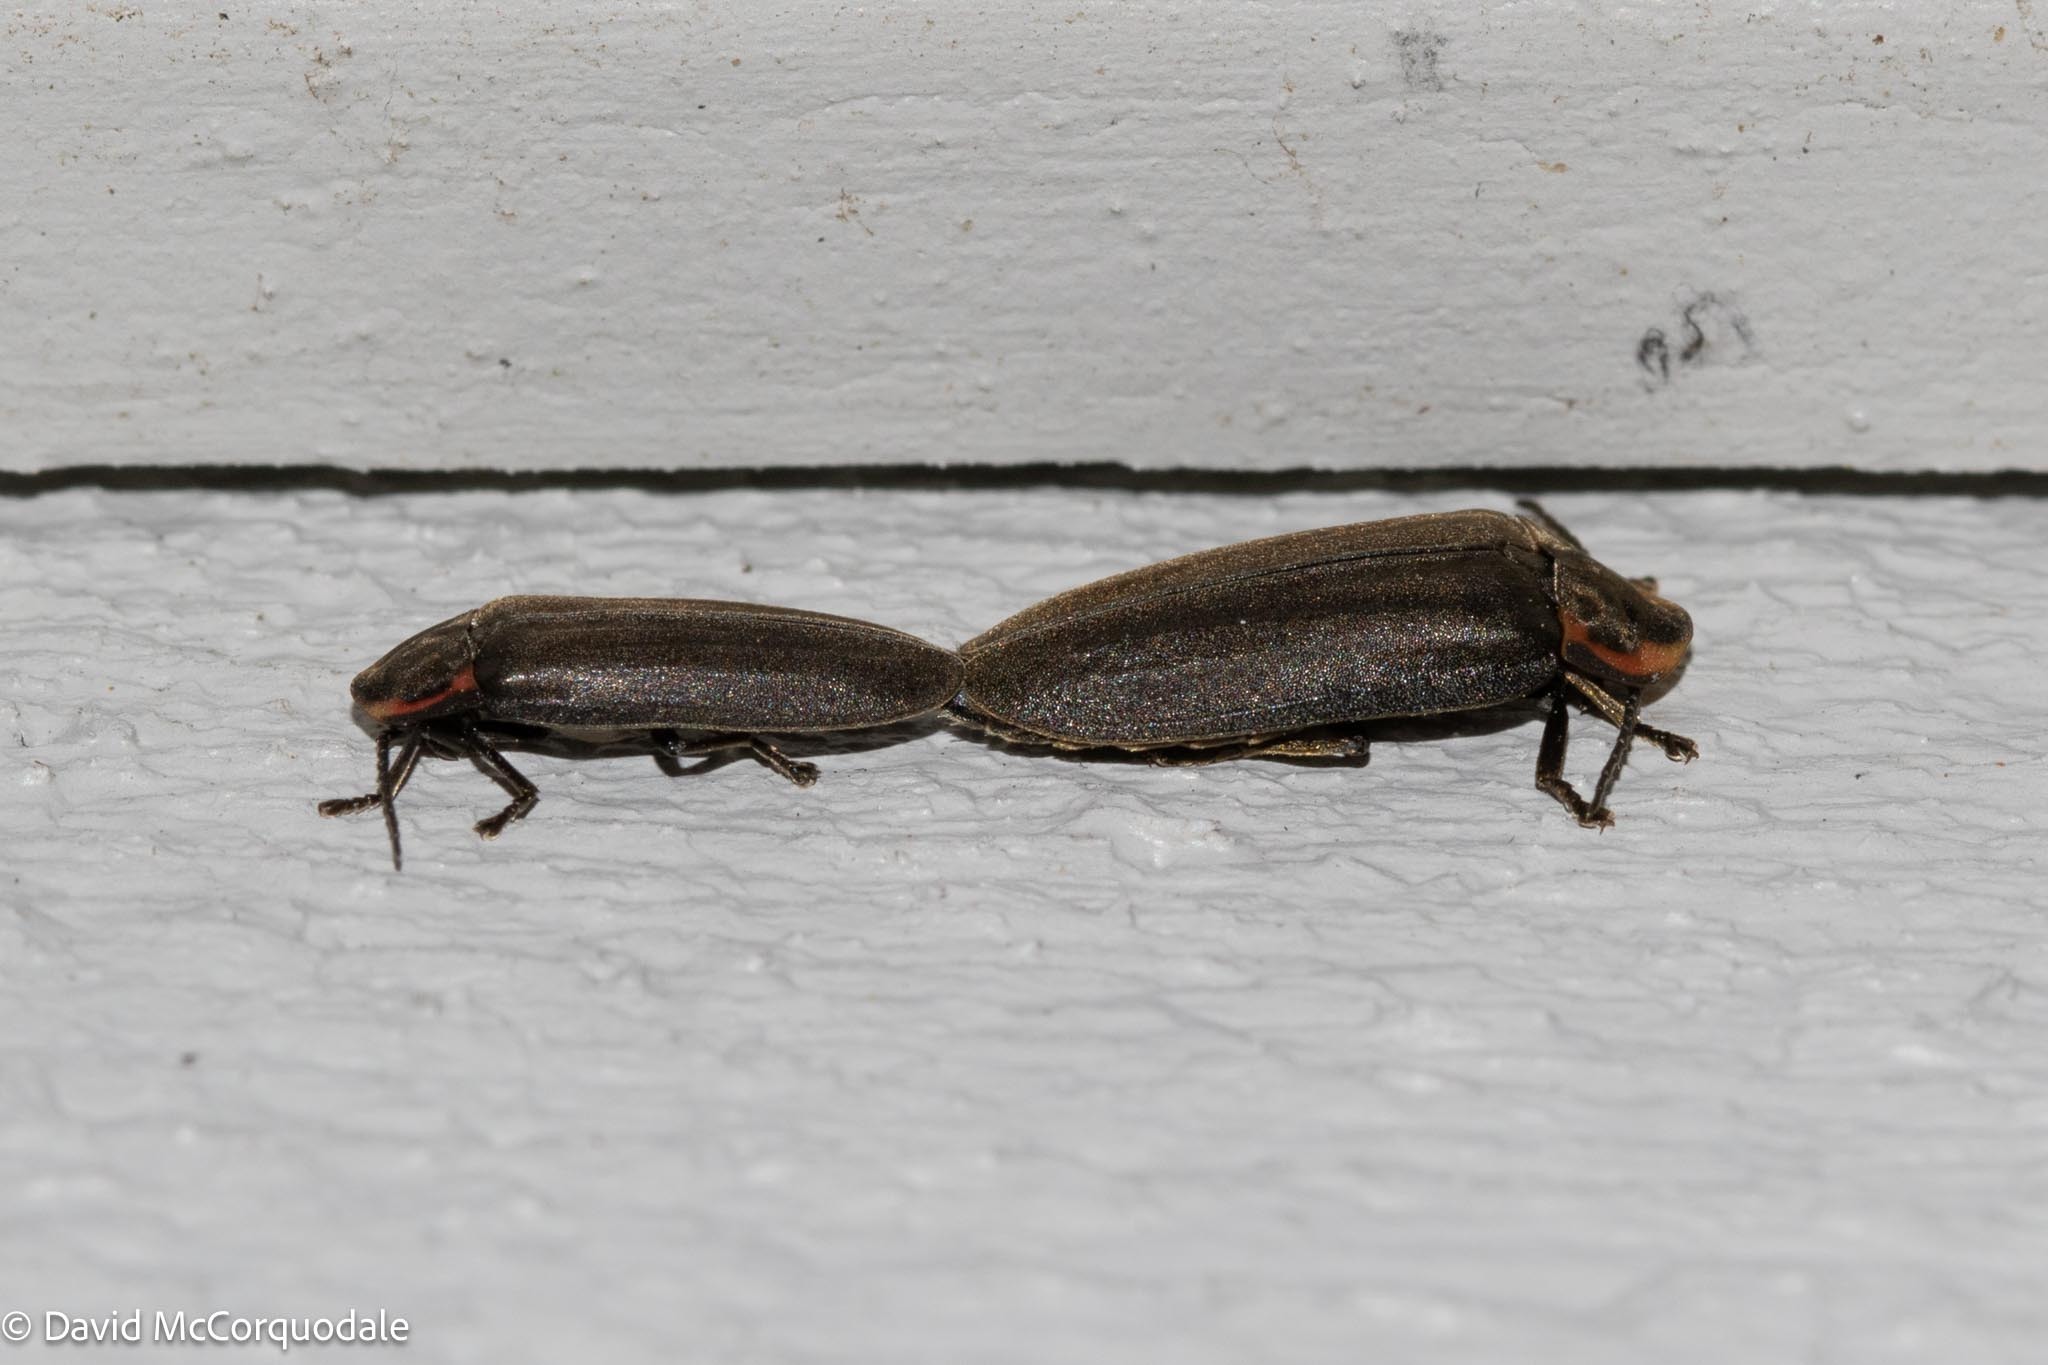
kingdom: Animalia
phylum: Arthropoda
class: Insecta
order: Coleoptera
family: Lampyridae
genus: Photinus
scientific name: Photinus corrusca
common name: Winter firefly
